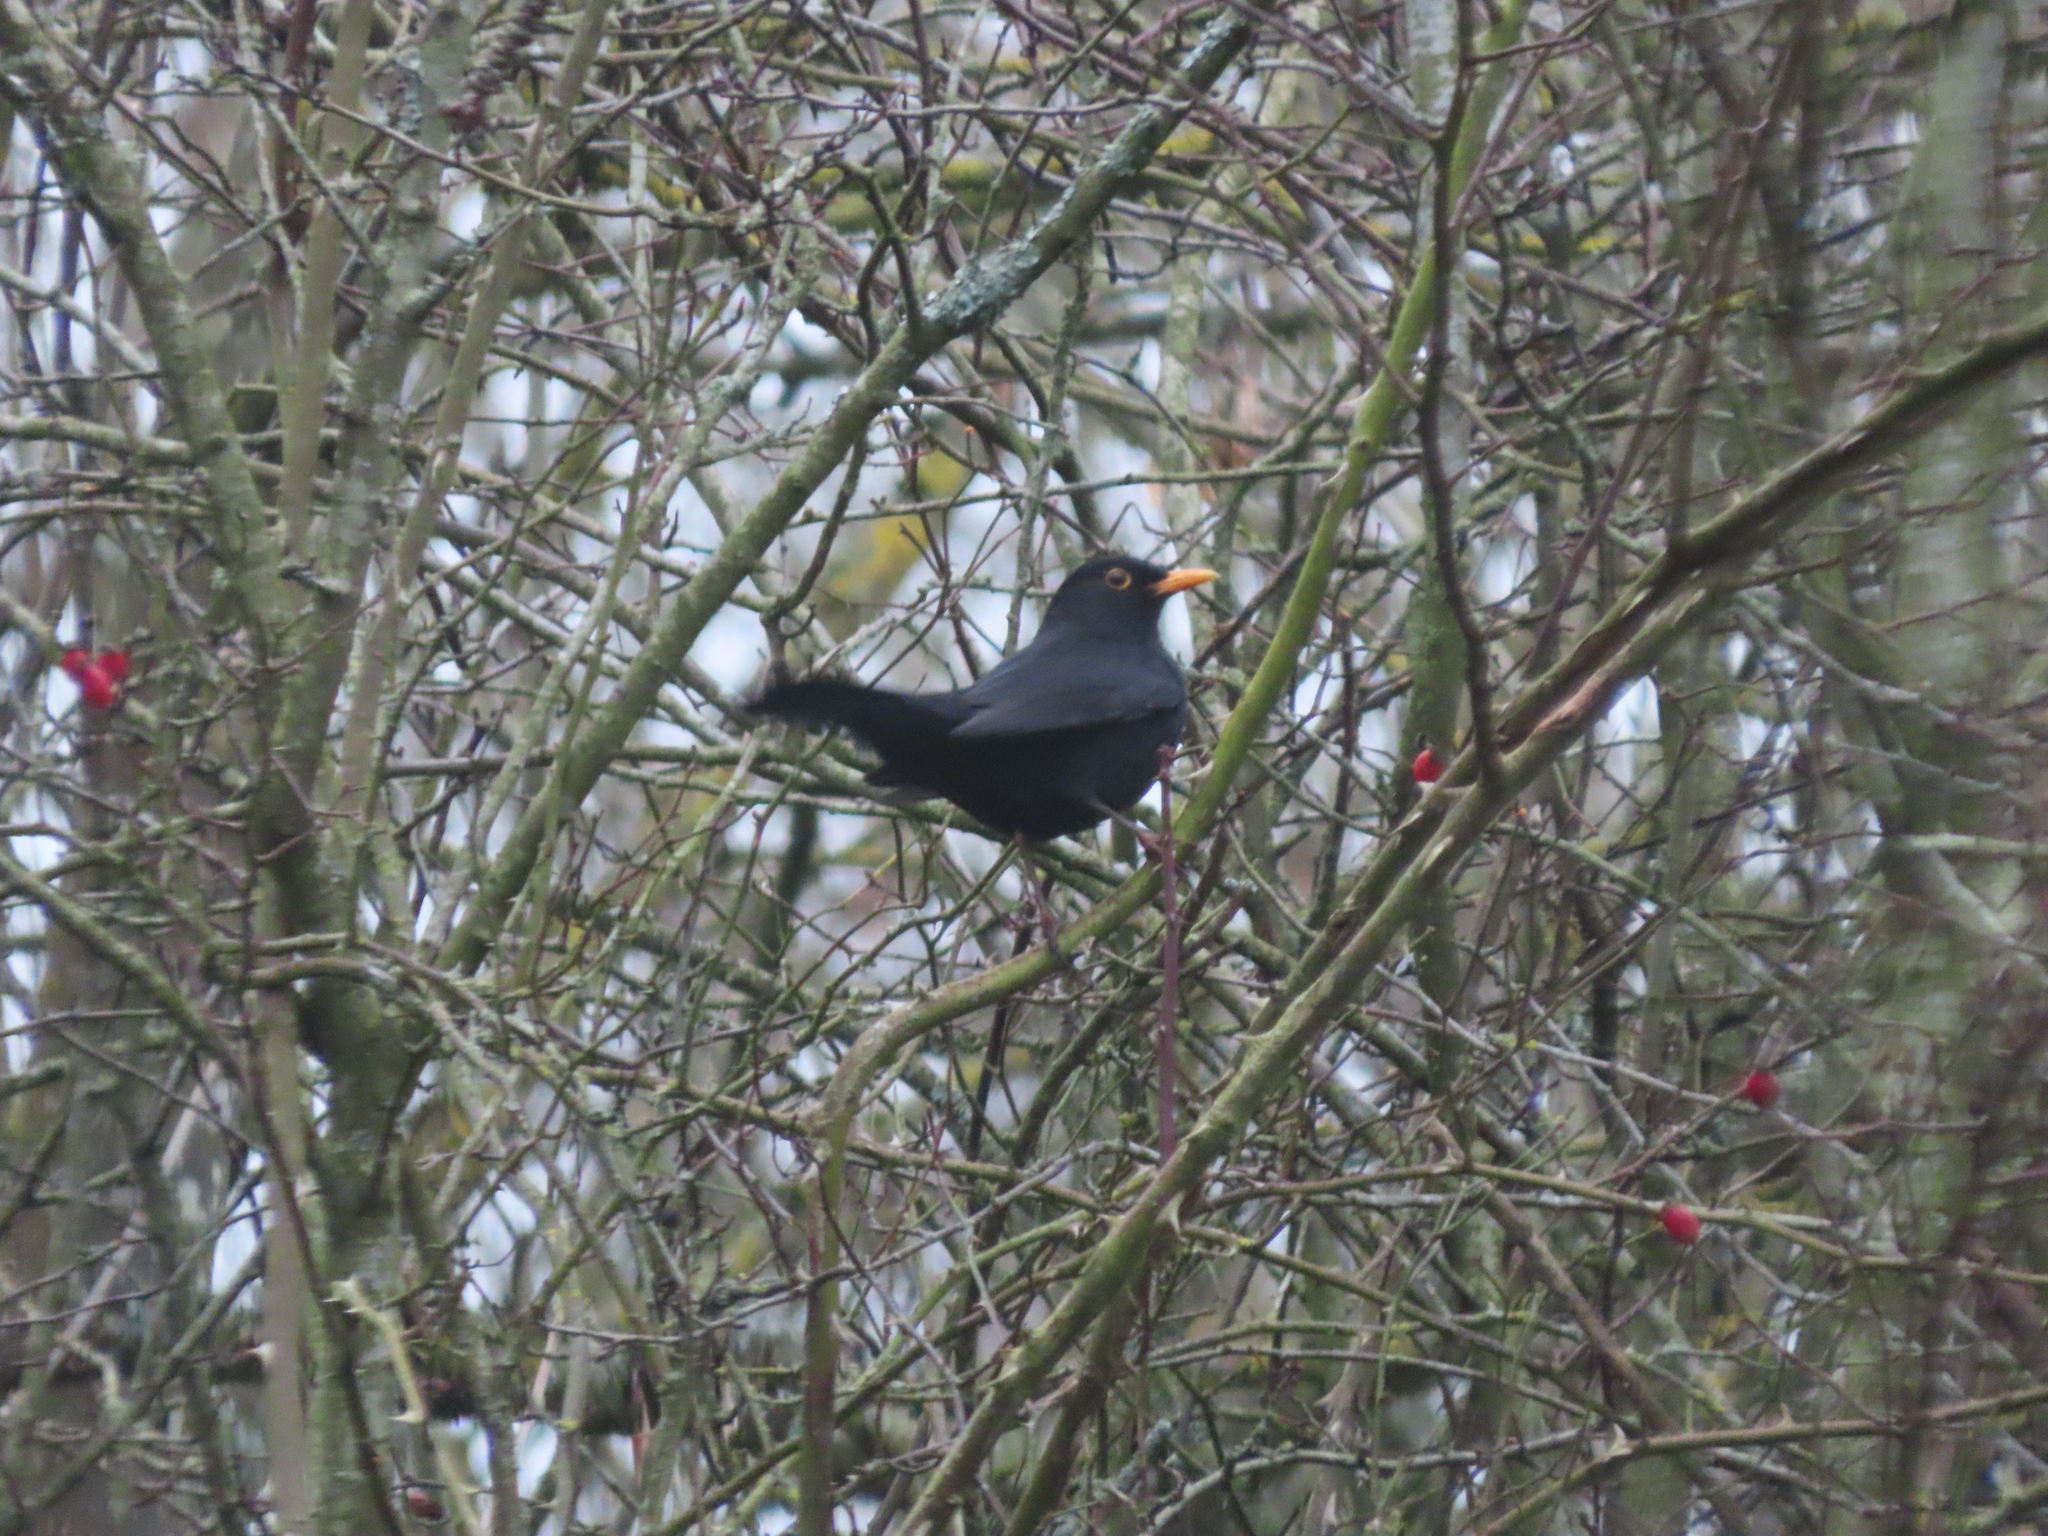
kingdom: Animalia
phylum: Chordata
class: Aves
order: Passeriformes
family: Turdidae
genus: Turdus
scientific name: Turdus merula
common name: Common blackbird
